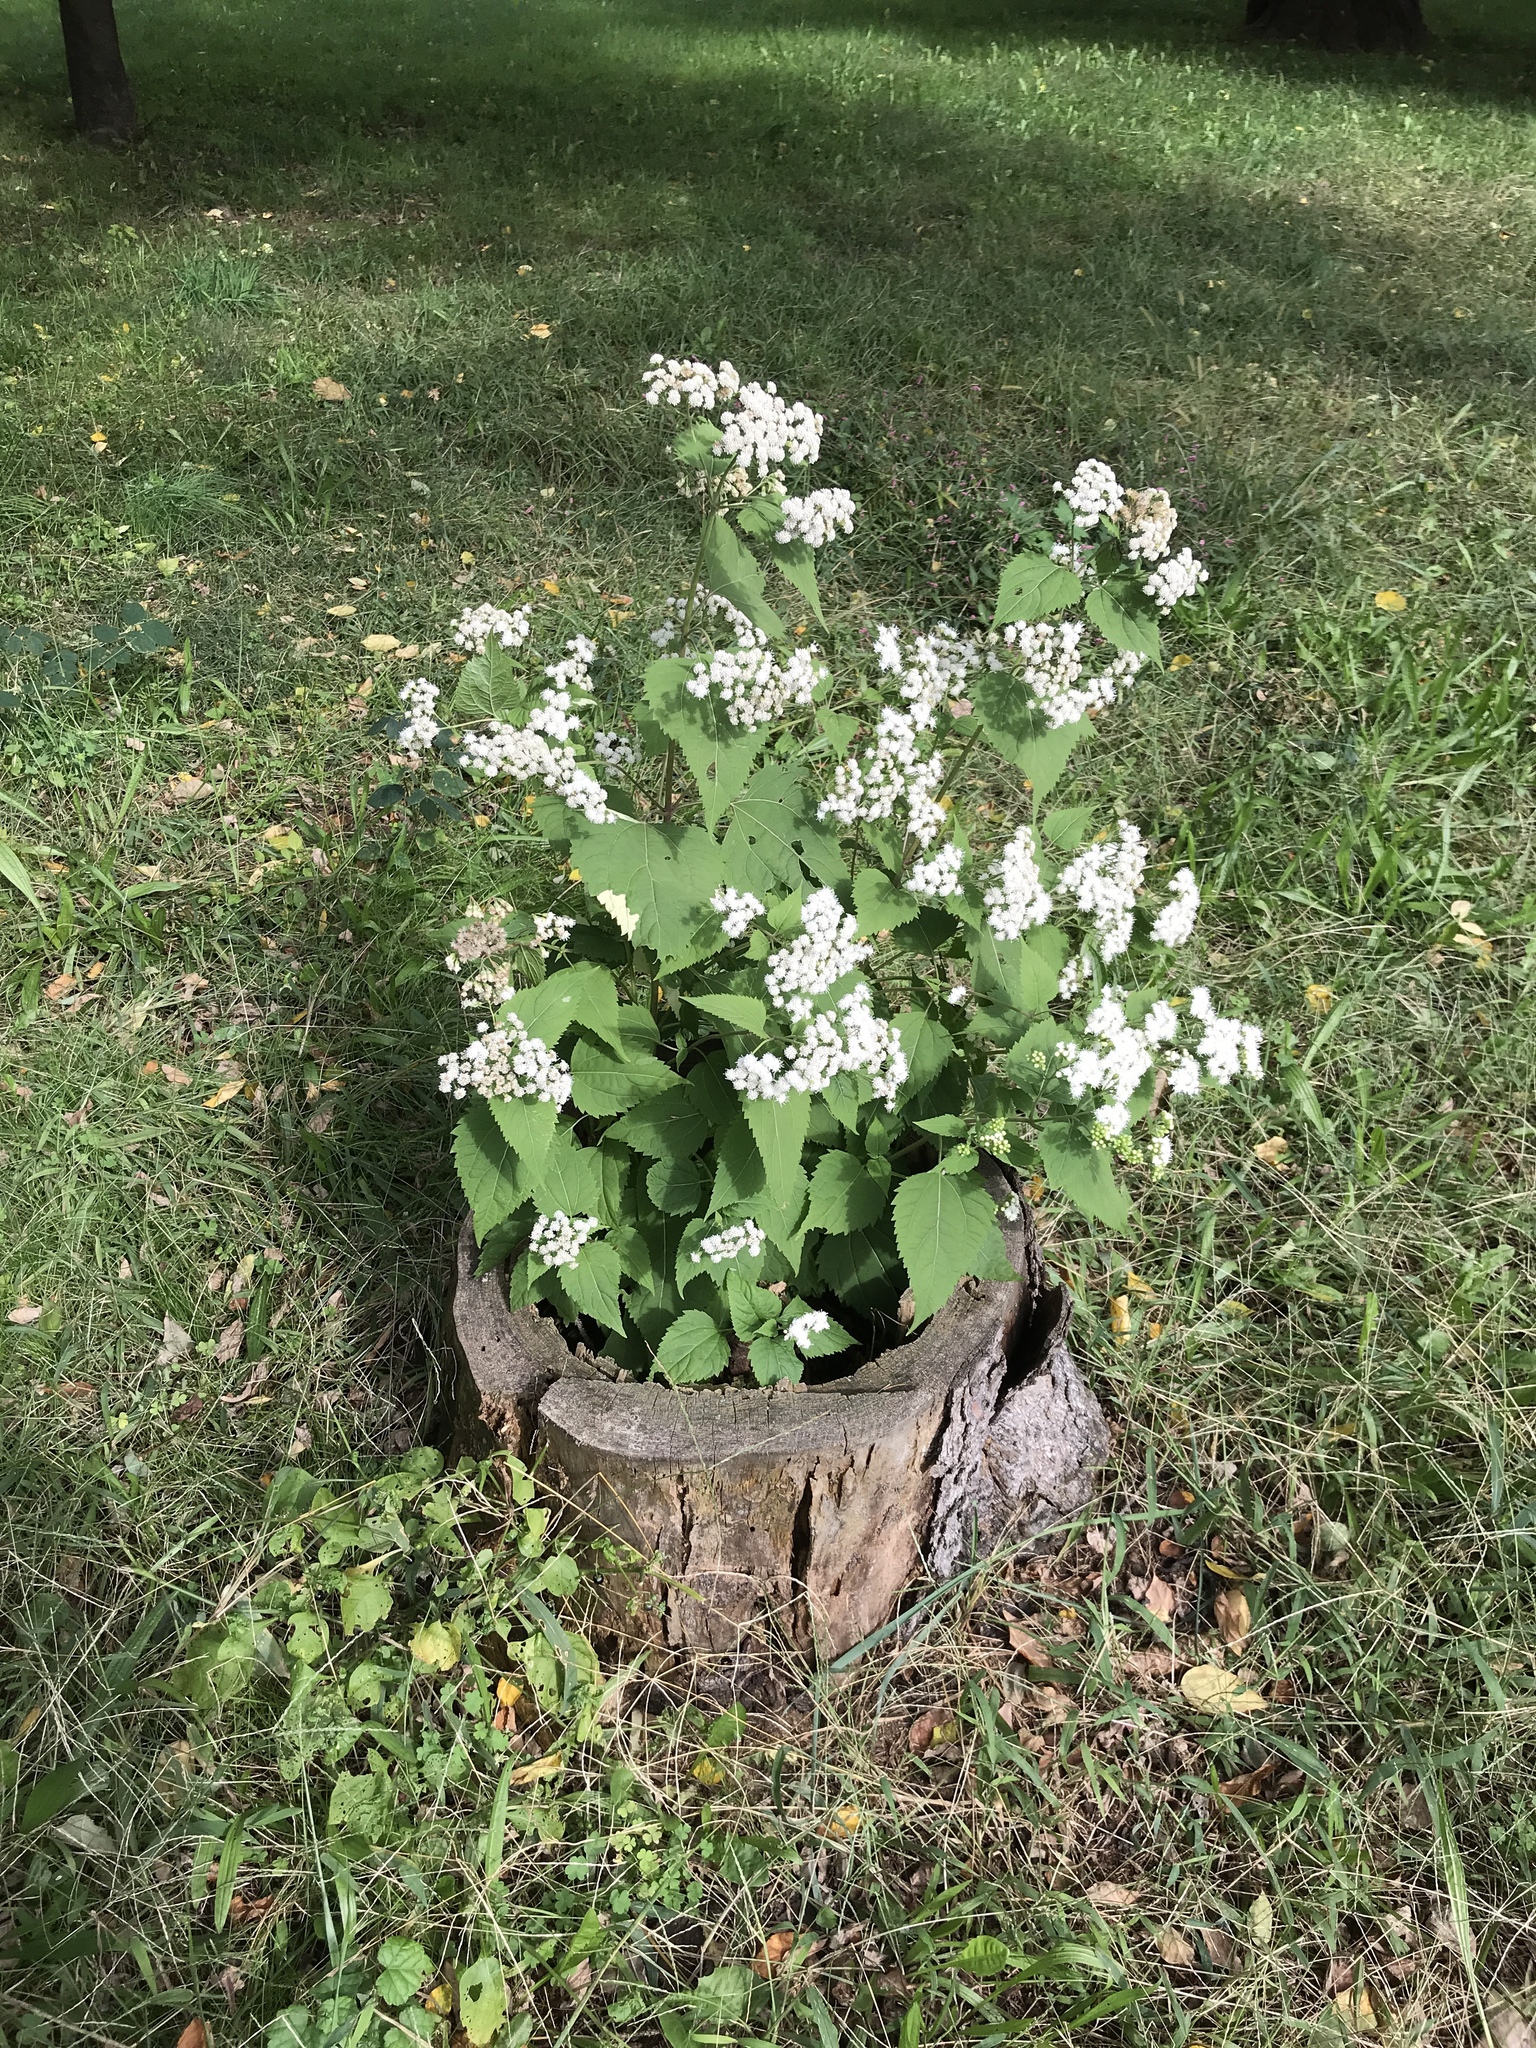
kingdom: Plantae
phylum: Tracheophyta
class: Magnoliopsida
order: Asterales
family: Asteraceae
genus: Ageratina
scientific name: Ageratina altissima
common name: White snakeroot
